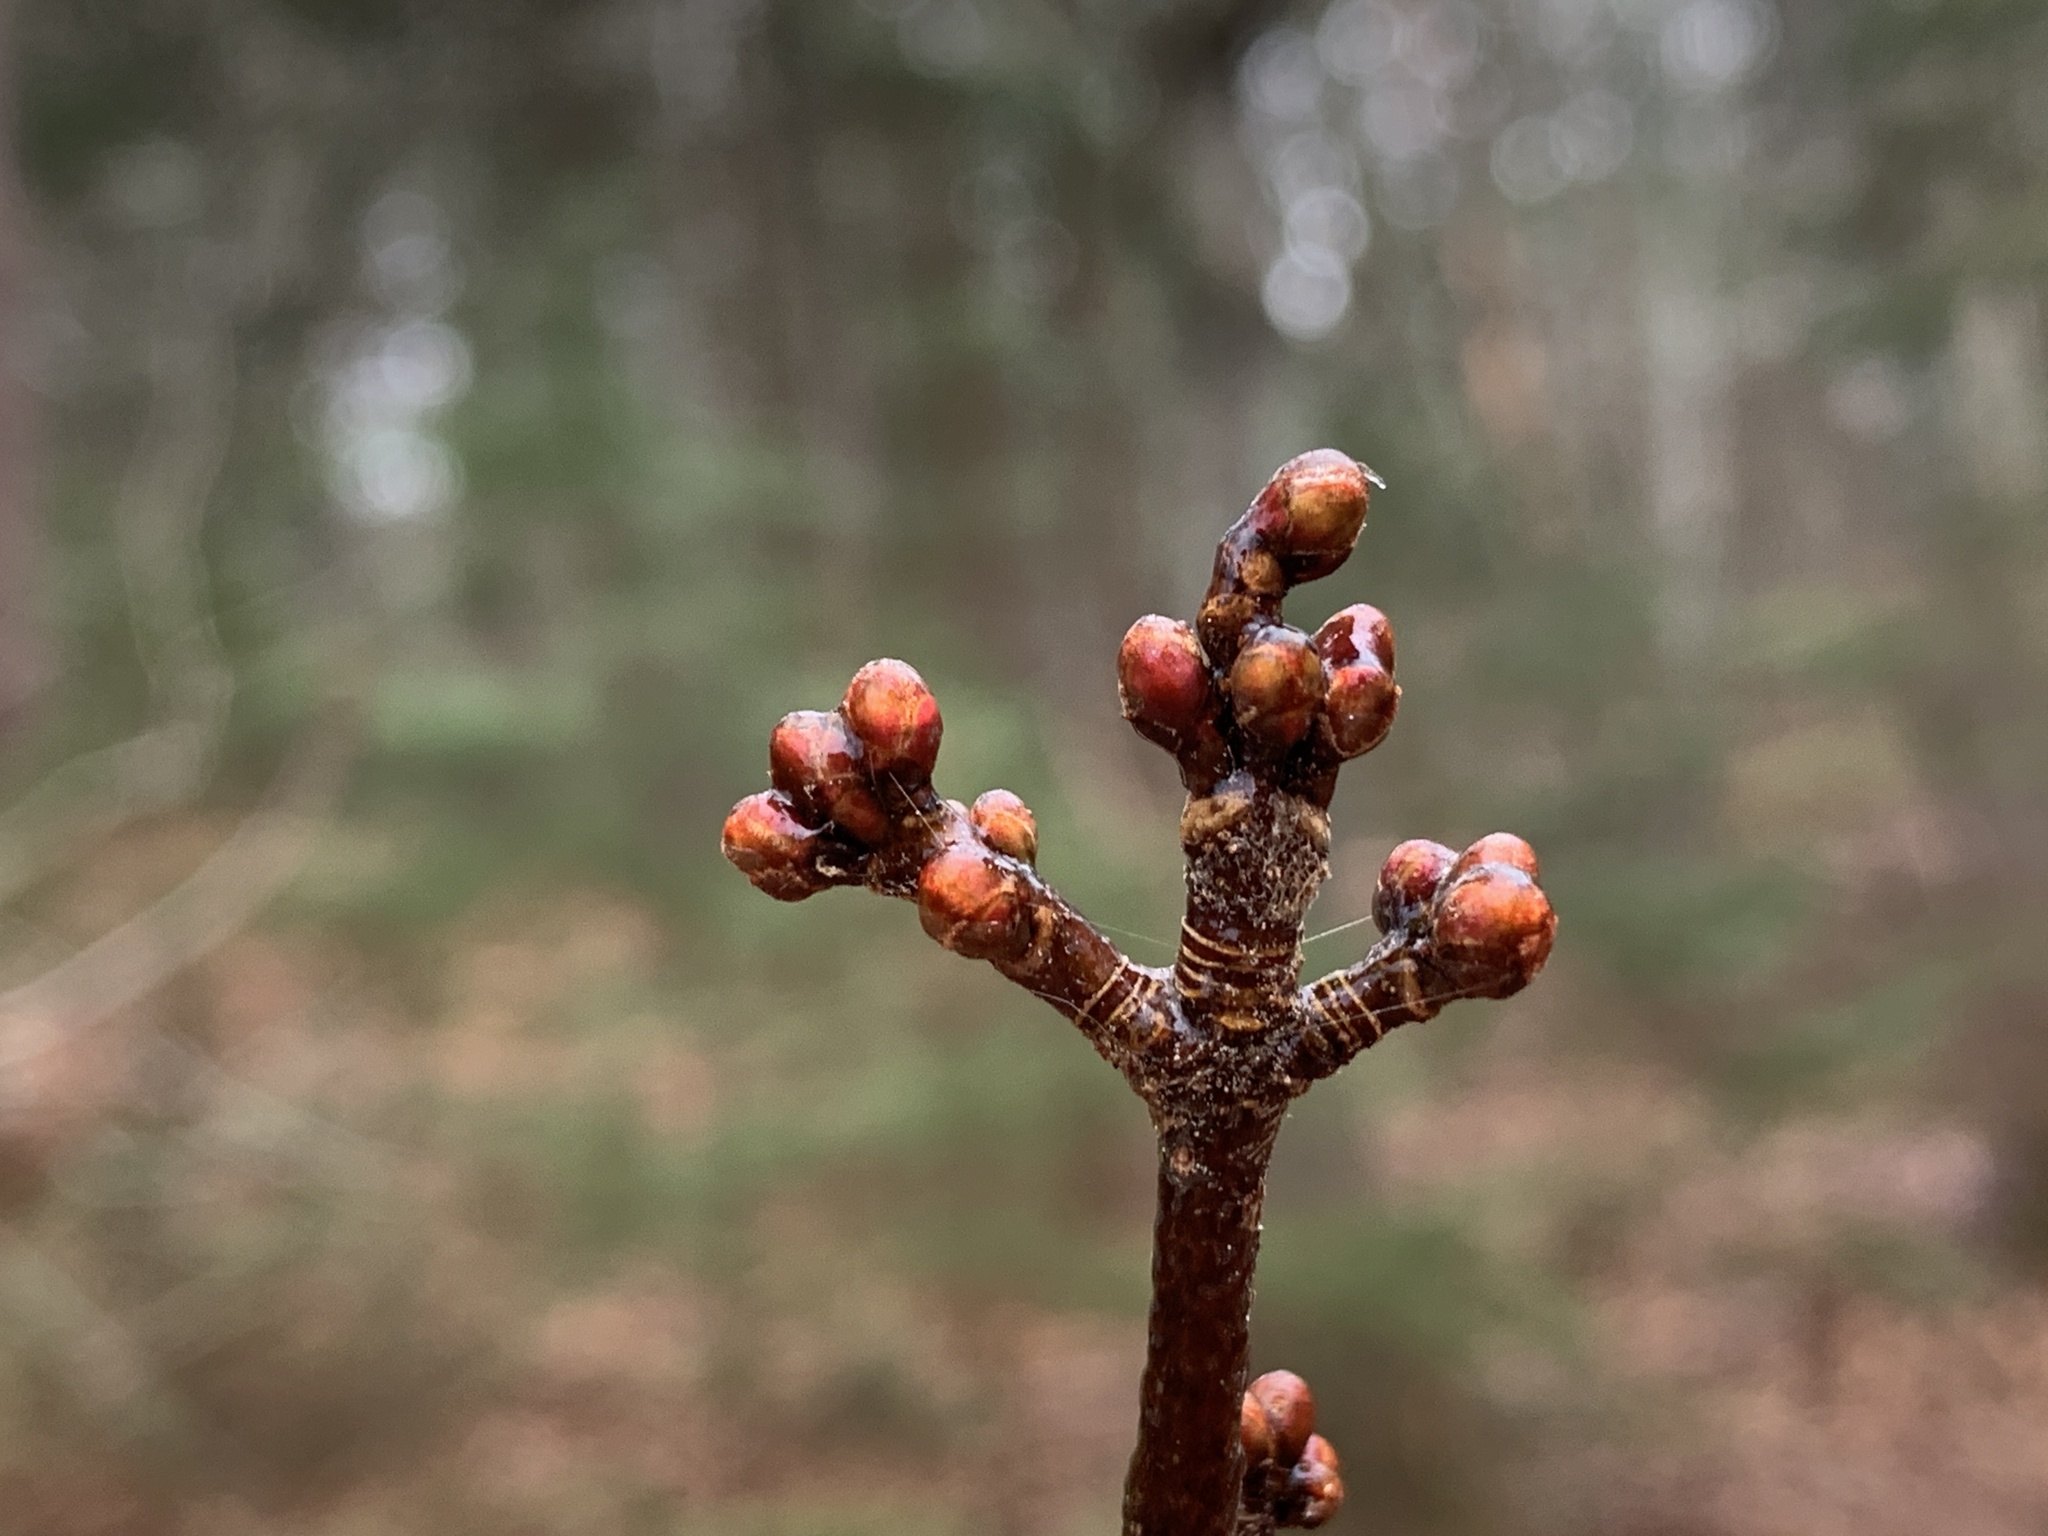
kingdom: Plantae
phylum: Tracheophyta
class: Magnoliopsida
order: Sapindales
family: Sapindaceae
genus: Acer
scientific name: Acer rubrum
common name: Red maple
